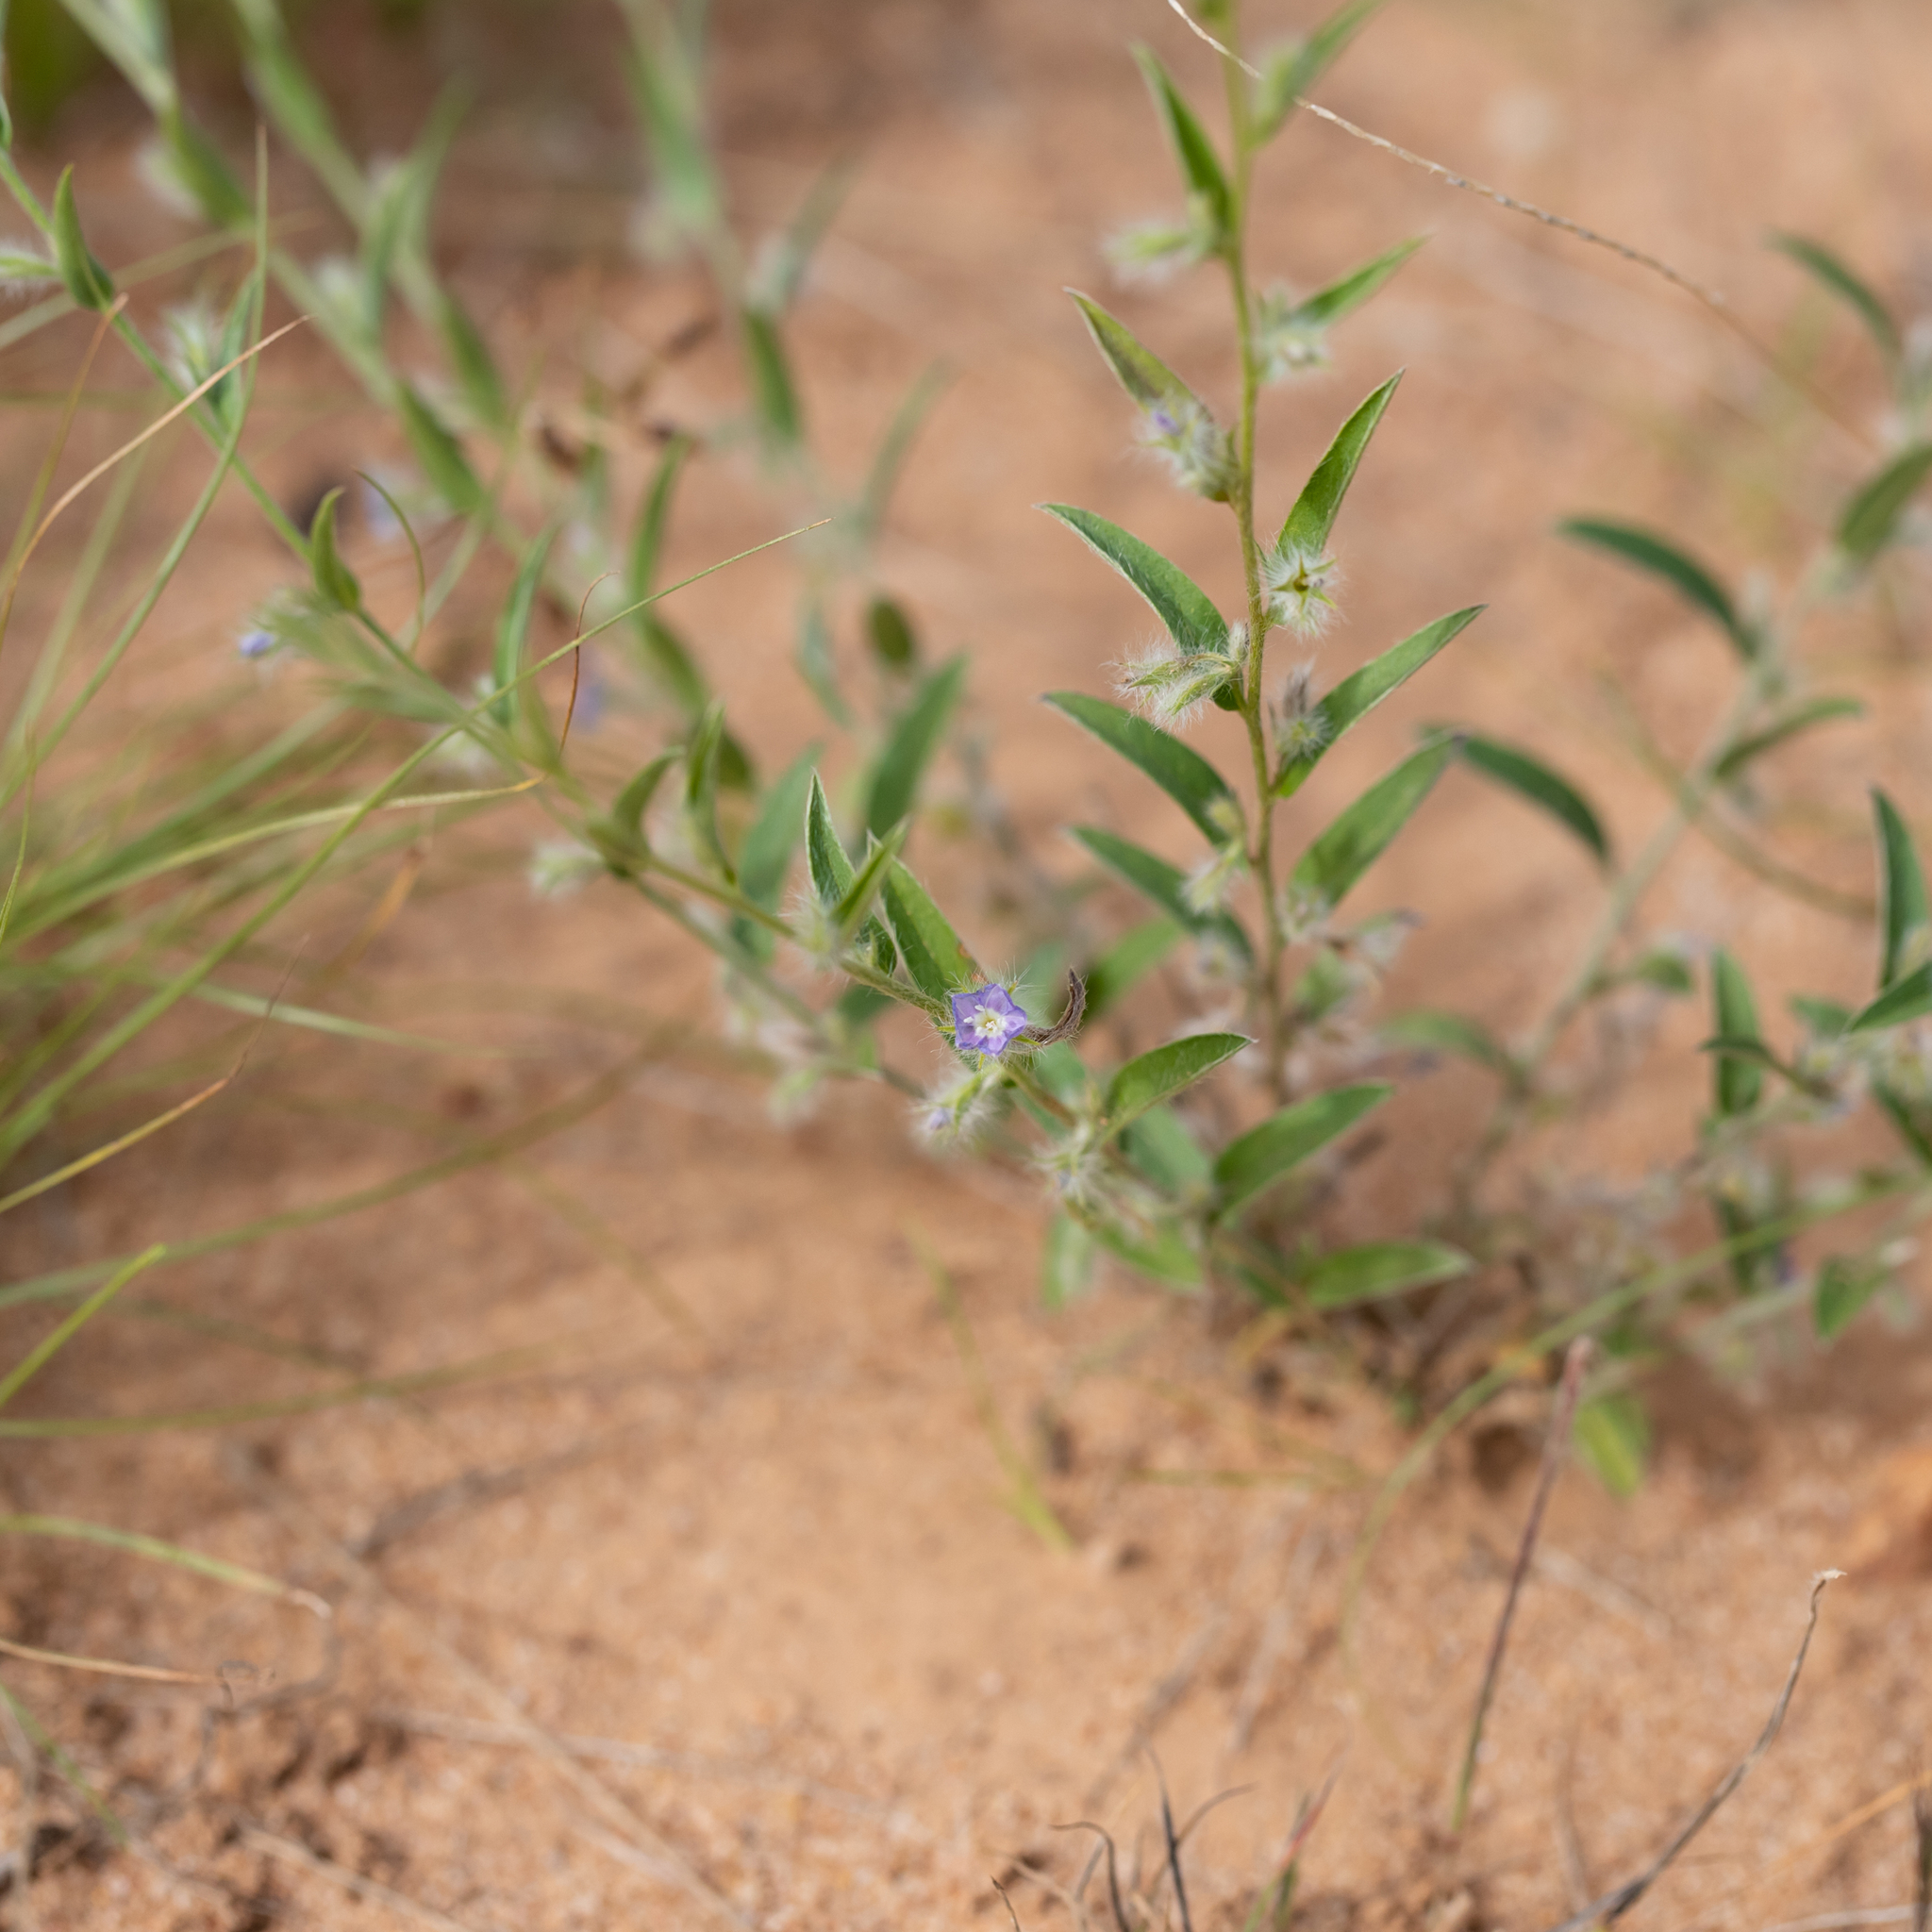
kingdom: Plantae
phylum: Tracheophyta
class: Magnoliopsida
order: Solanales
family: Convolvulaceae
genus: Evolvulus
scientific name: Evolvulus alsinoides
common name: Slender dwarf morning-glory
